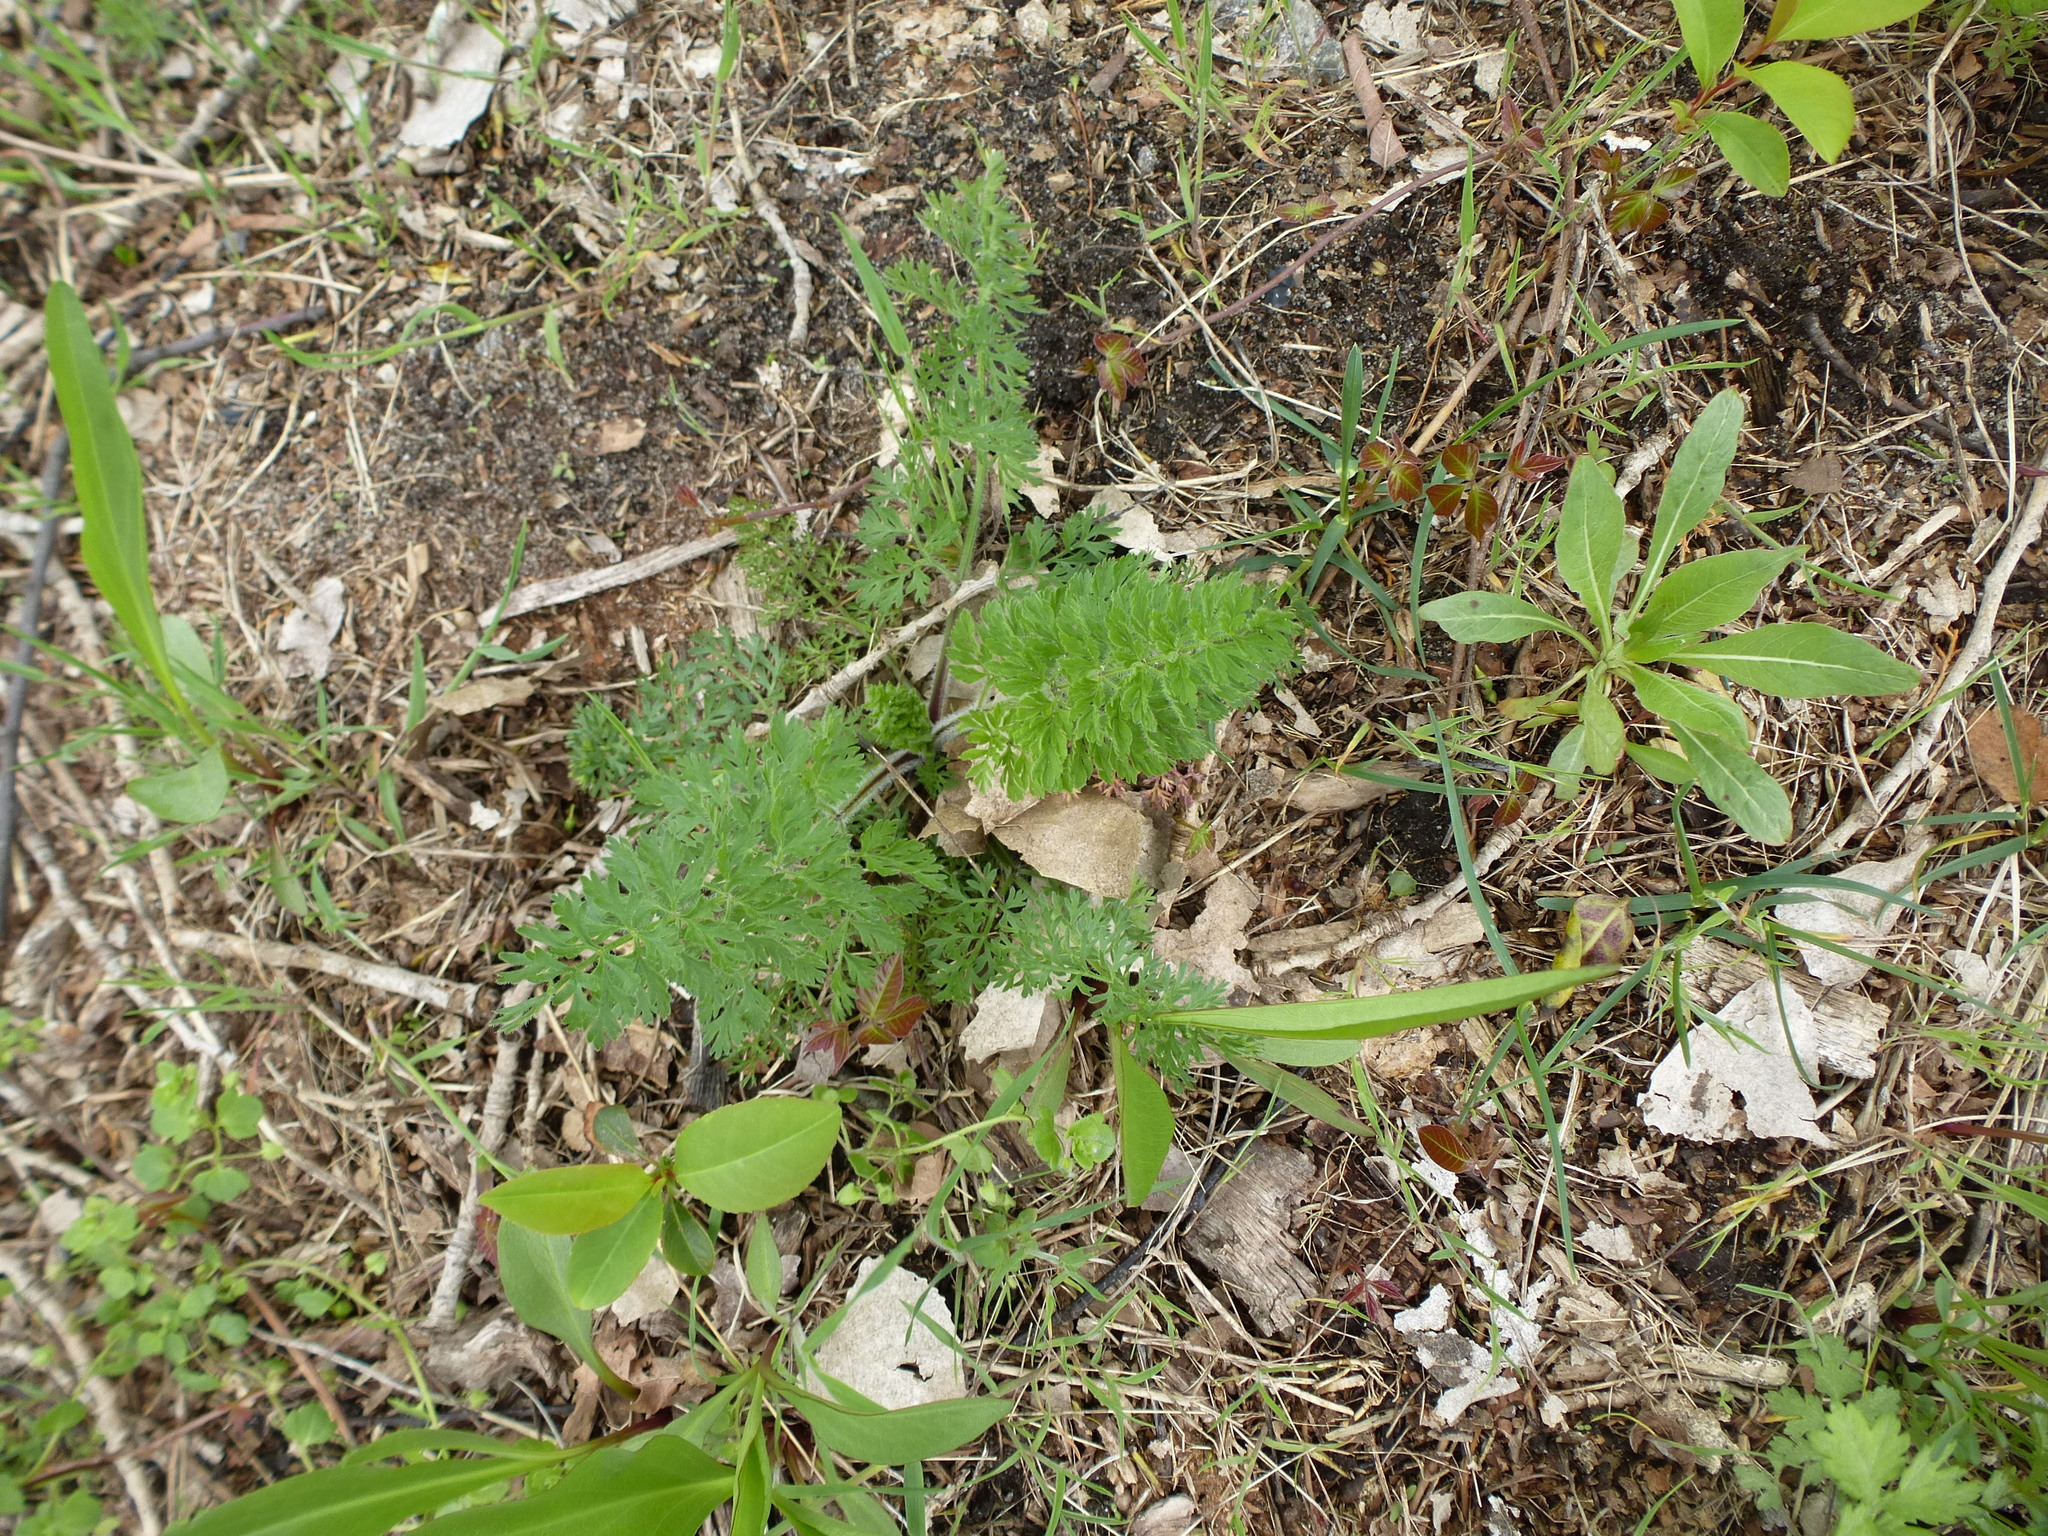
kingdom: Plantae
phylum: Tracheophyta
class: Magnoliopsida
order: Apiales
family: Apiaceae
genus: Daucus
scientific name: Daucus carota
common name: Wild carrot
